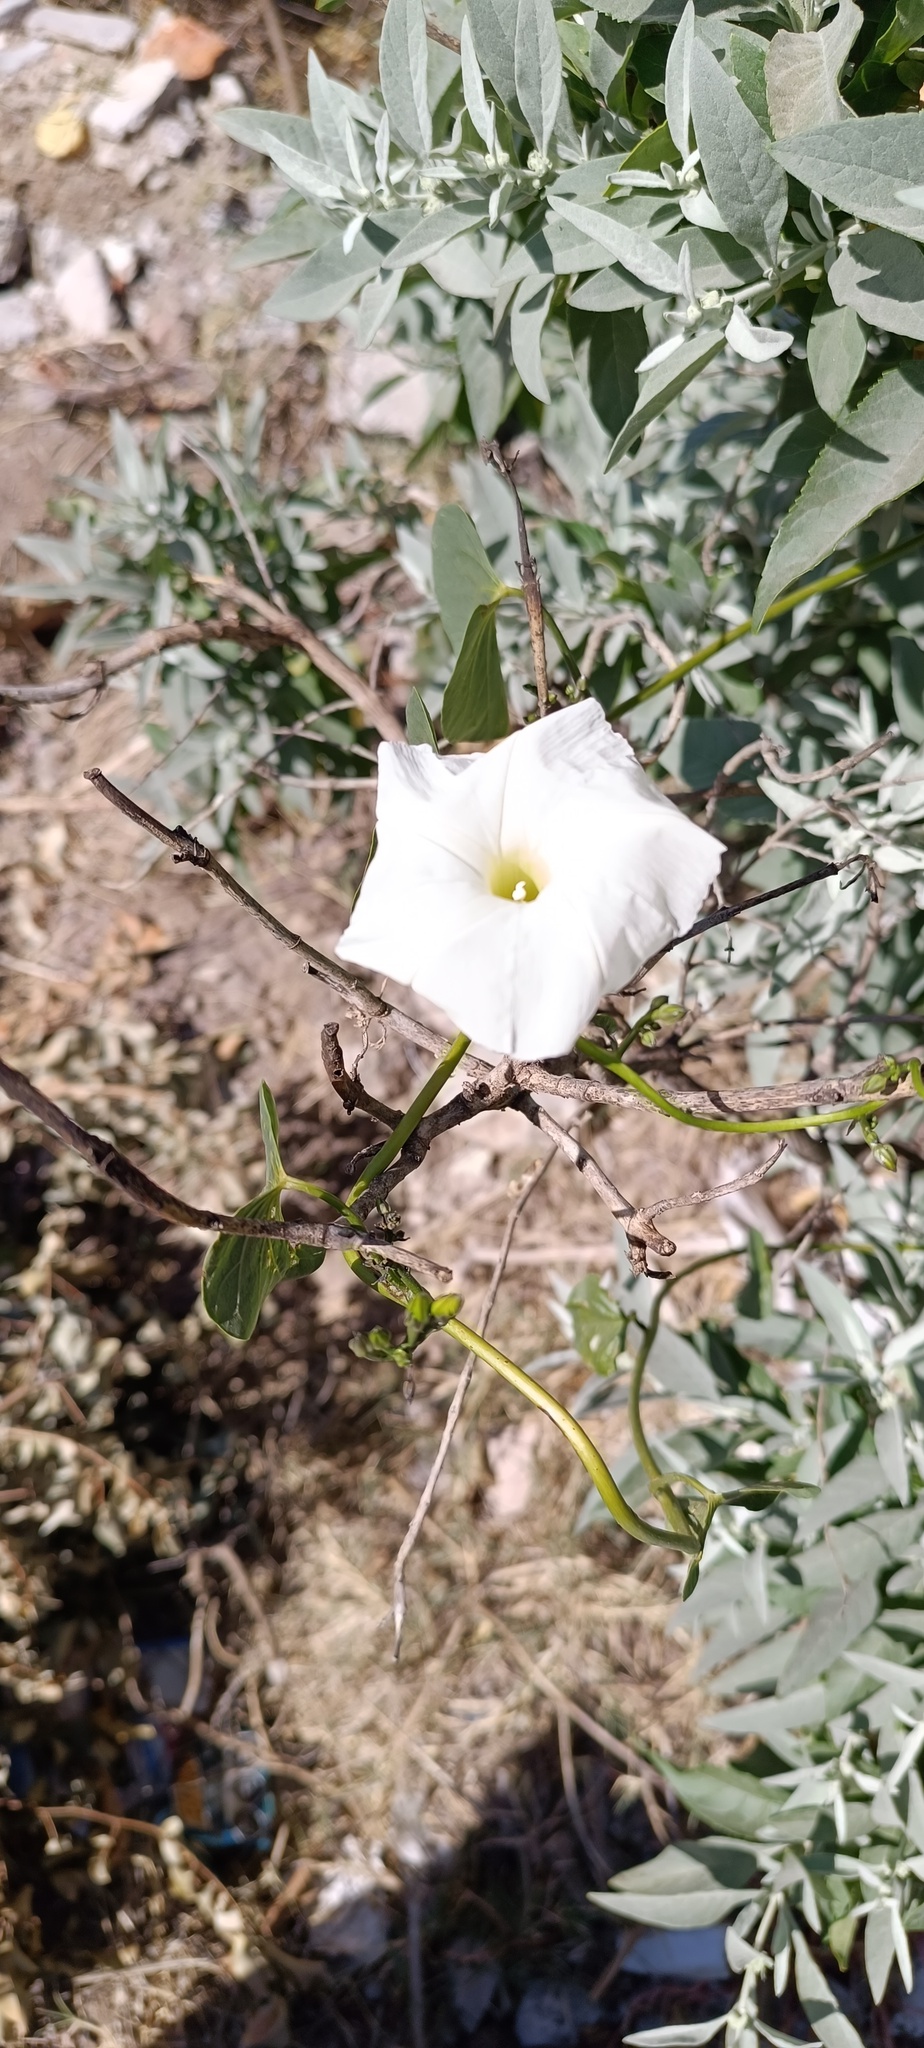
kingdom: Plantae
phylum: Tracheophyta
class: Magnoliopsida
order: Solanales
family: Convolvulaceae
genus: Ipomoea
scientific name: Ipomoea tricolor
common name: Morning-glory
